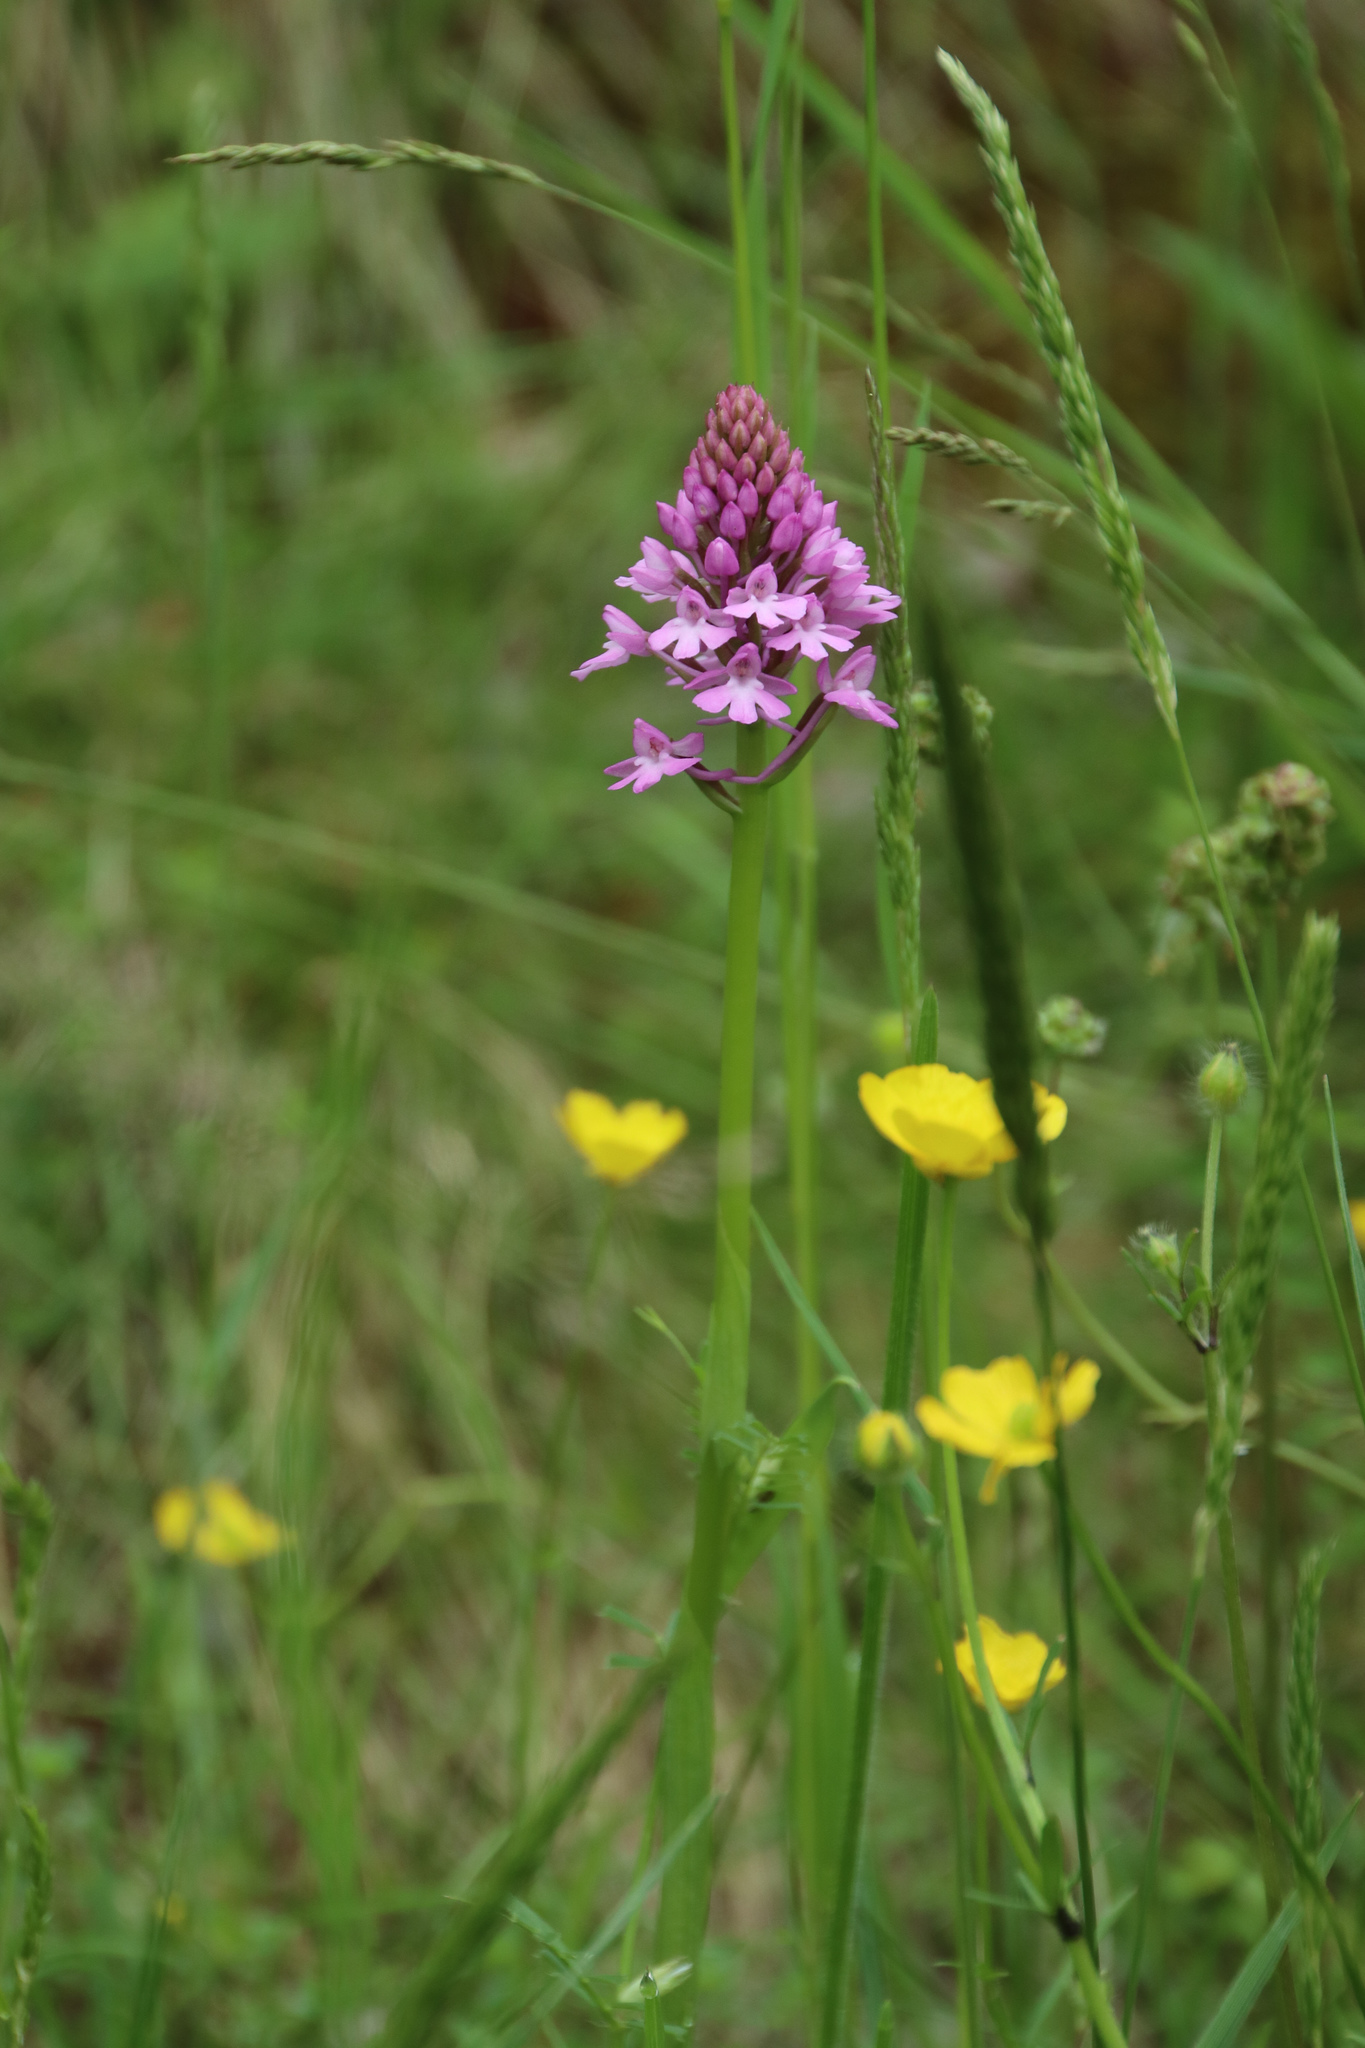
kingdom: Plantae
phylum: Tracheophyta
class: Liliopsida
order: Asparagales
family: Orchidaceae
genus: Anacamptis
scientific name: Anacamptis pyramidalis
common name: Pyramidal orchid
